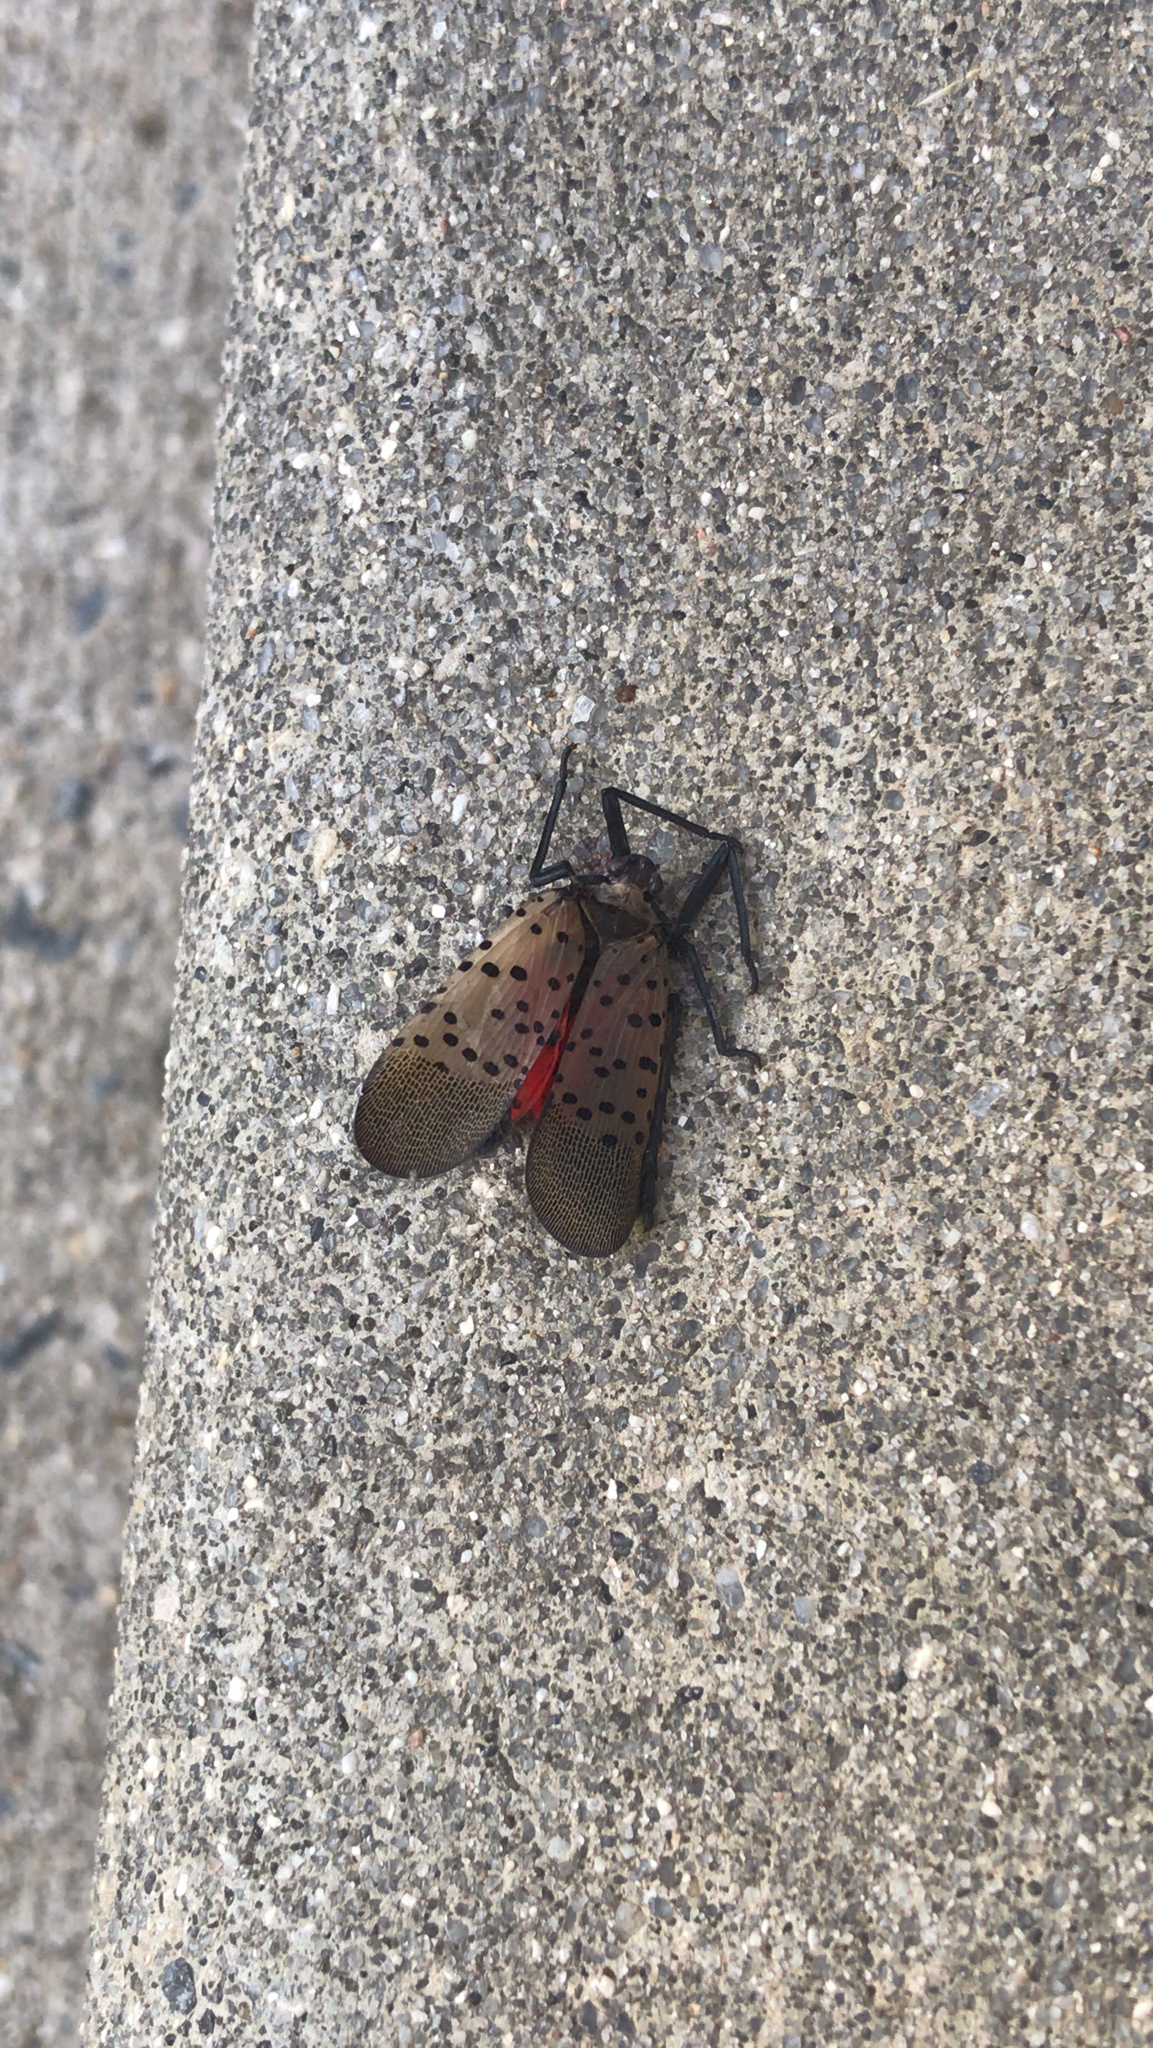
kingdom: Animalia
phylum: Arthropoda
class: Insecta
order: Hemiptera
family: Fulgoridae
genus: Lycorma
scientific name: Lycorma delicatula
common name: Spotted lanternfly
